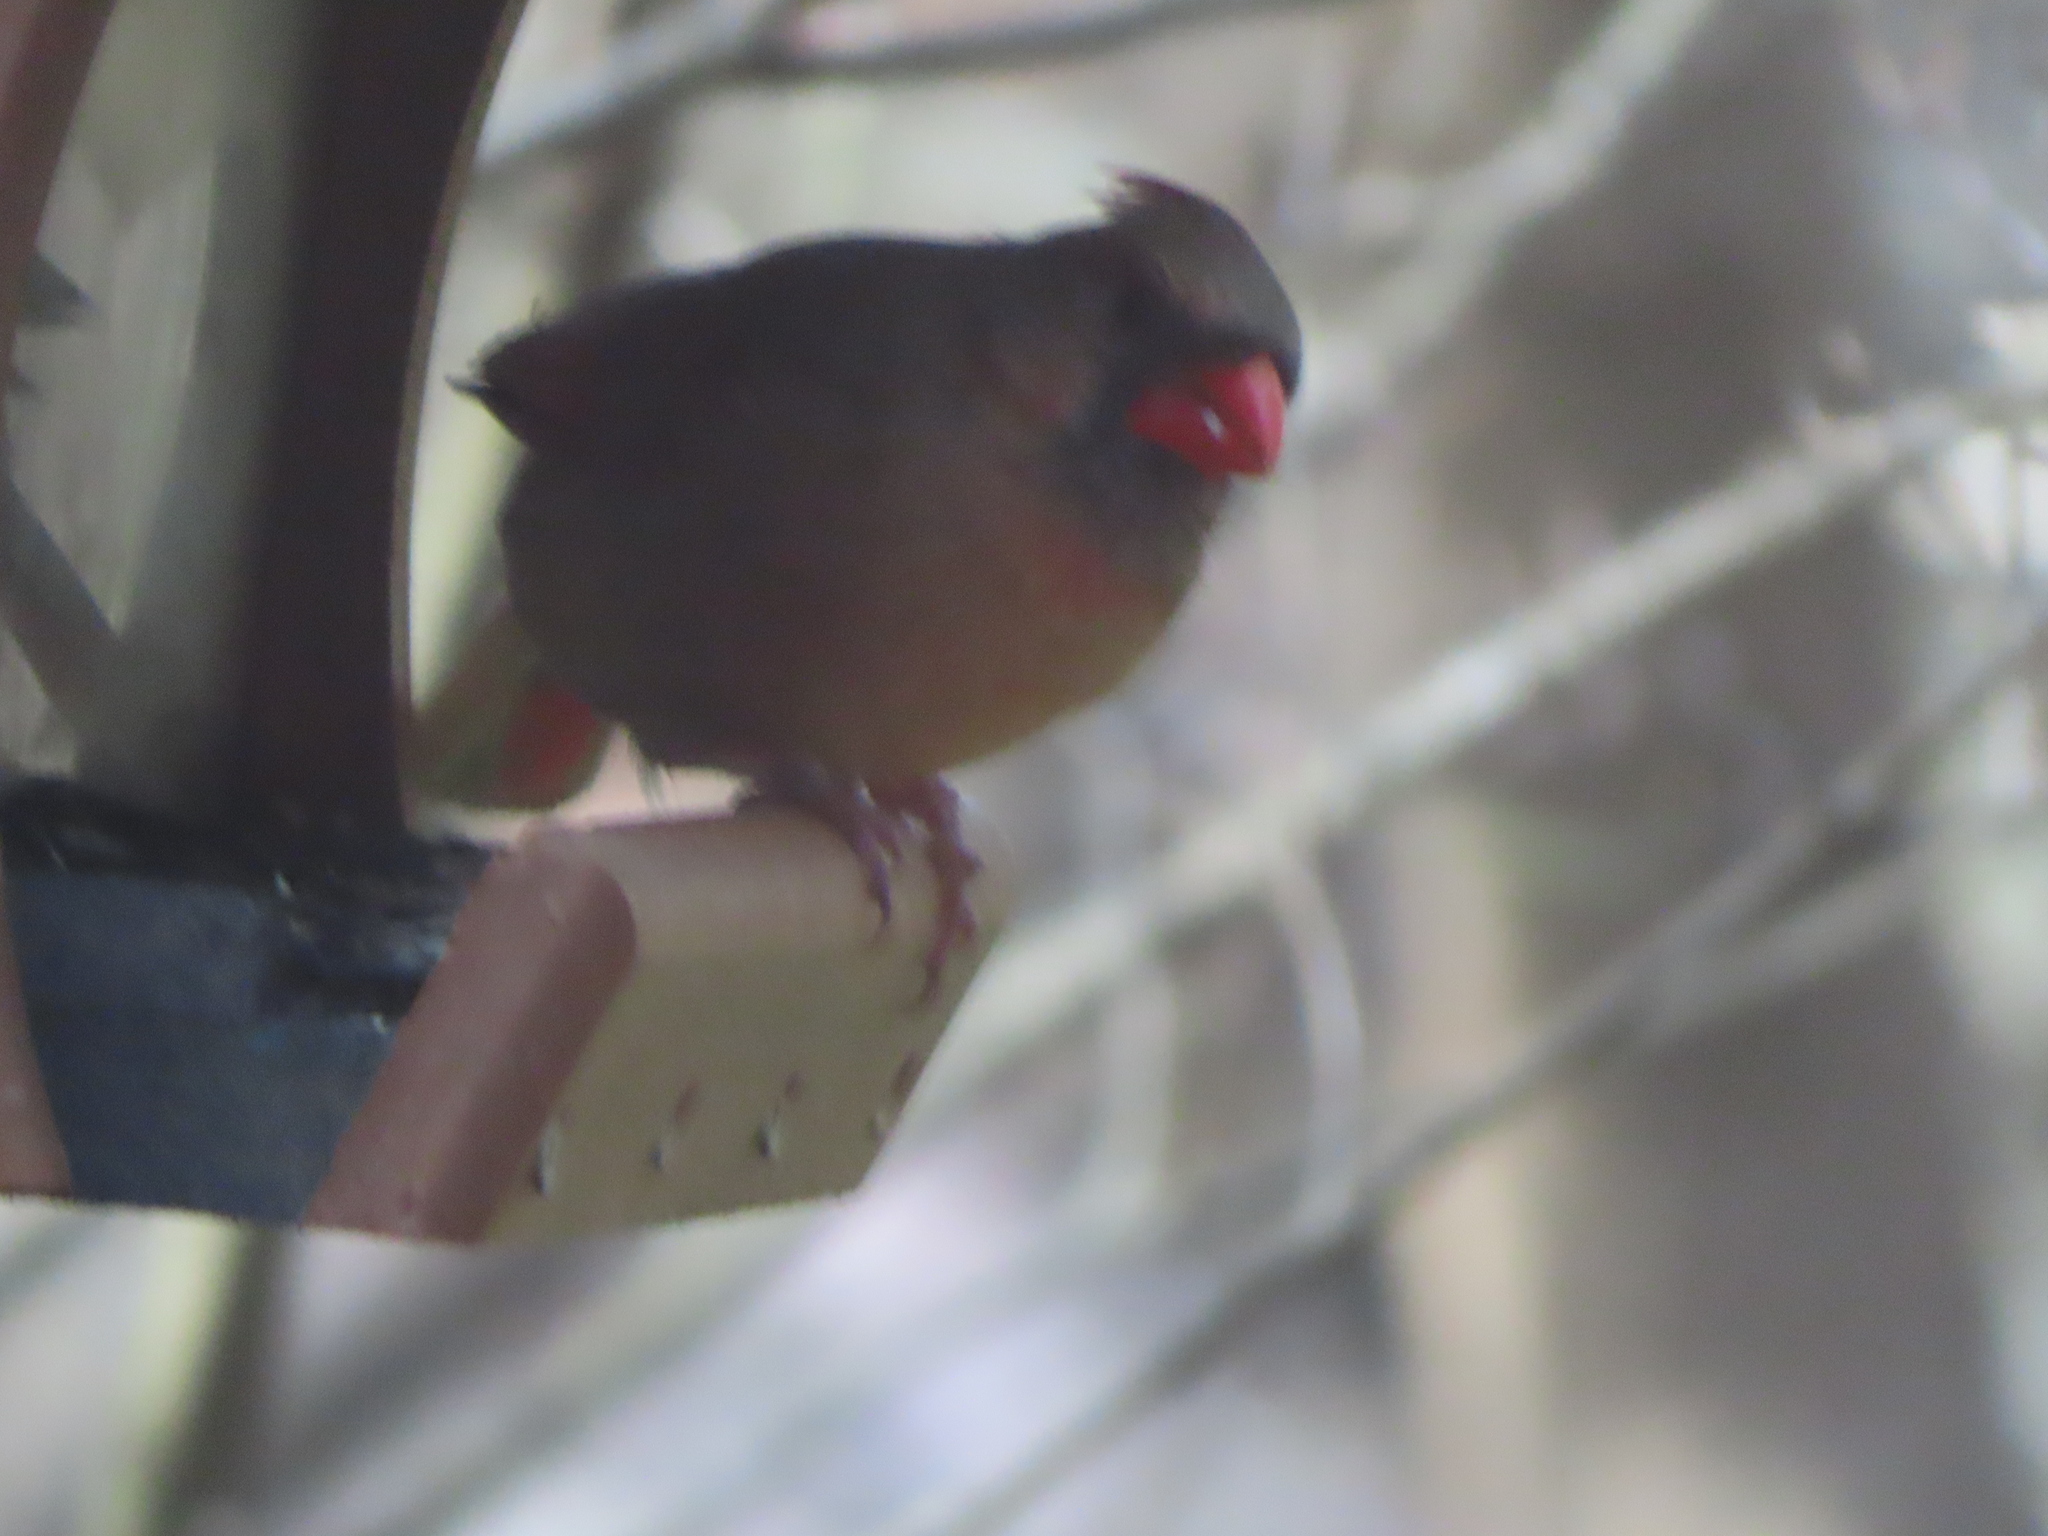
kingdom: Animalia
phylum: Chordata
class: Aves
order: Passeriformes
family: Cardinalidae
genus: Cardinalis
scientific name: Cardinalis cardinalis
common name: Northern cardinal
